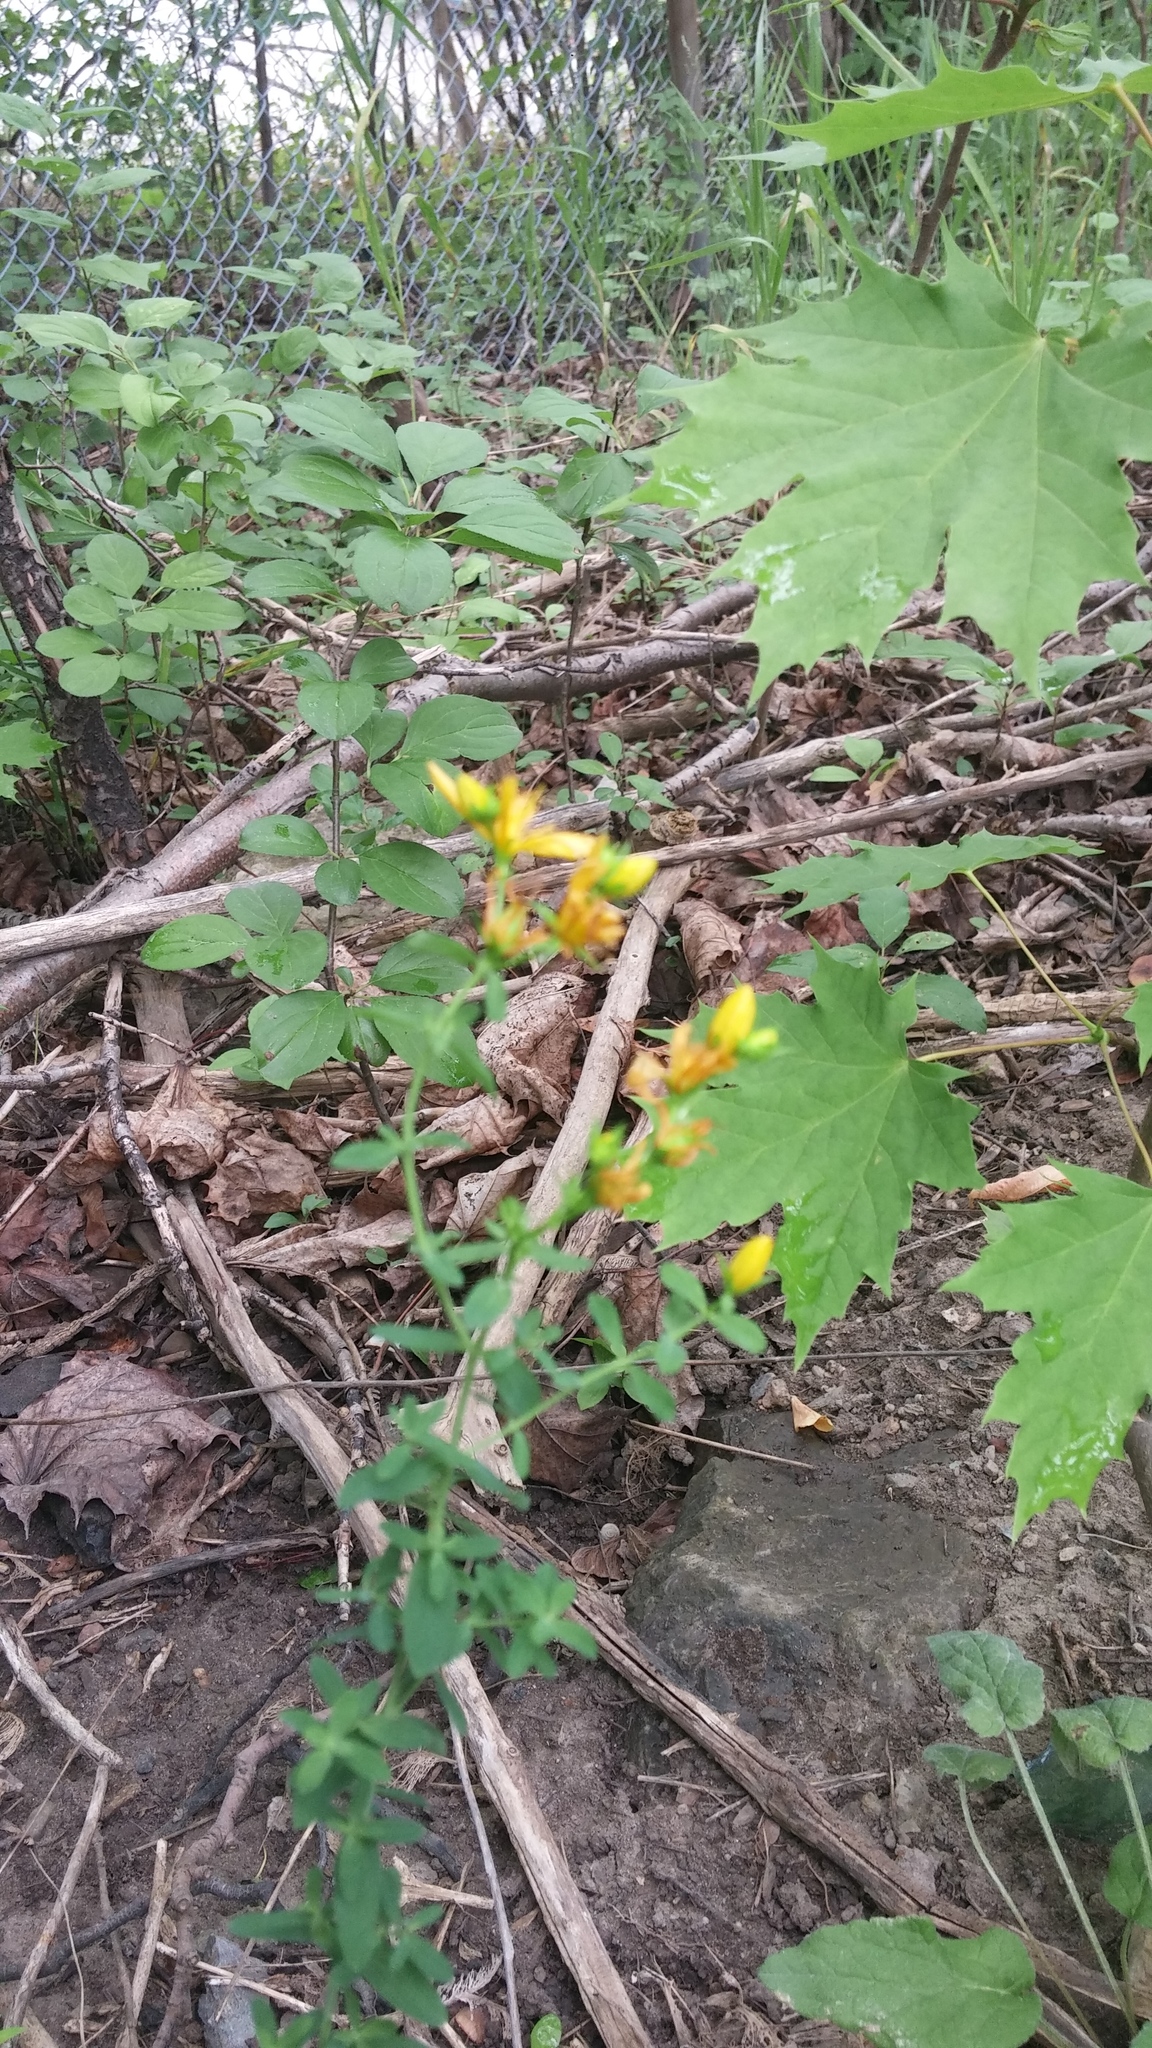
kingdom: Plantae
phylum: Tracheophyta
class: Magnoliopsida
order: Malpighiales
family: Hypericaceae
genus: Hypericum
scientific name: Hypericum perforatum
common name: Common st. johnswort
